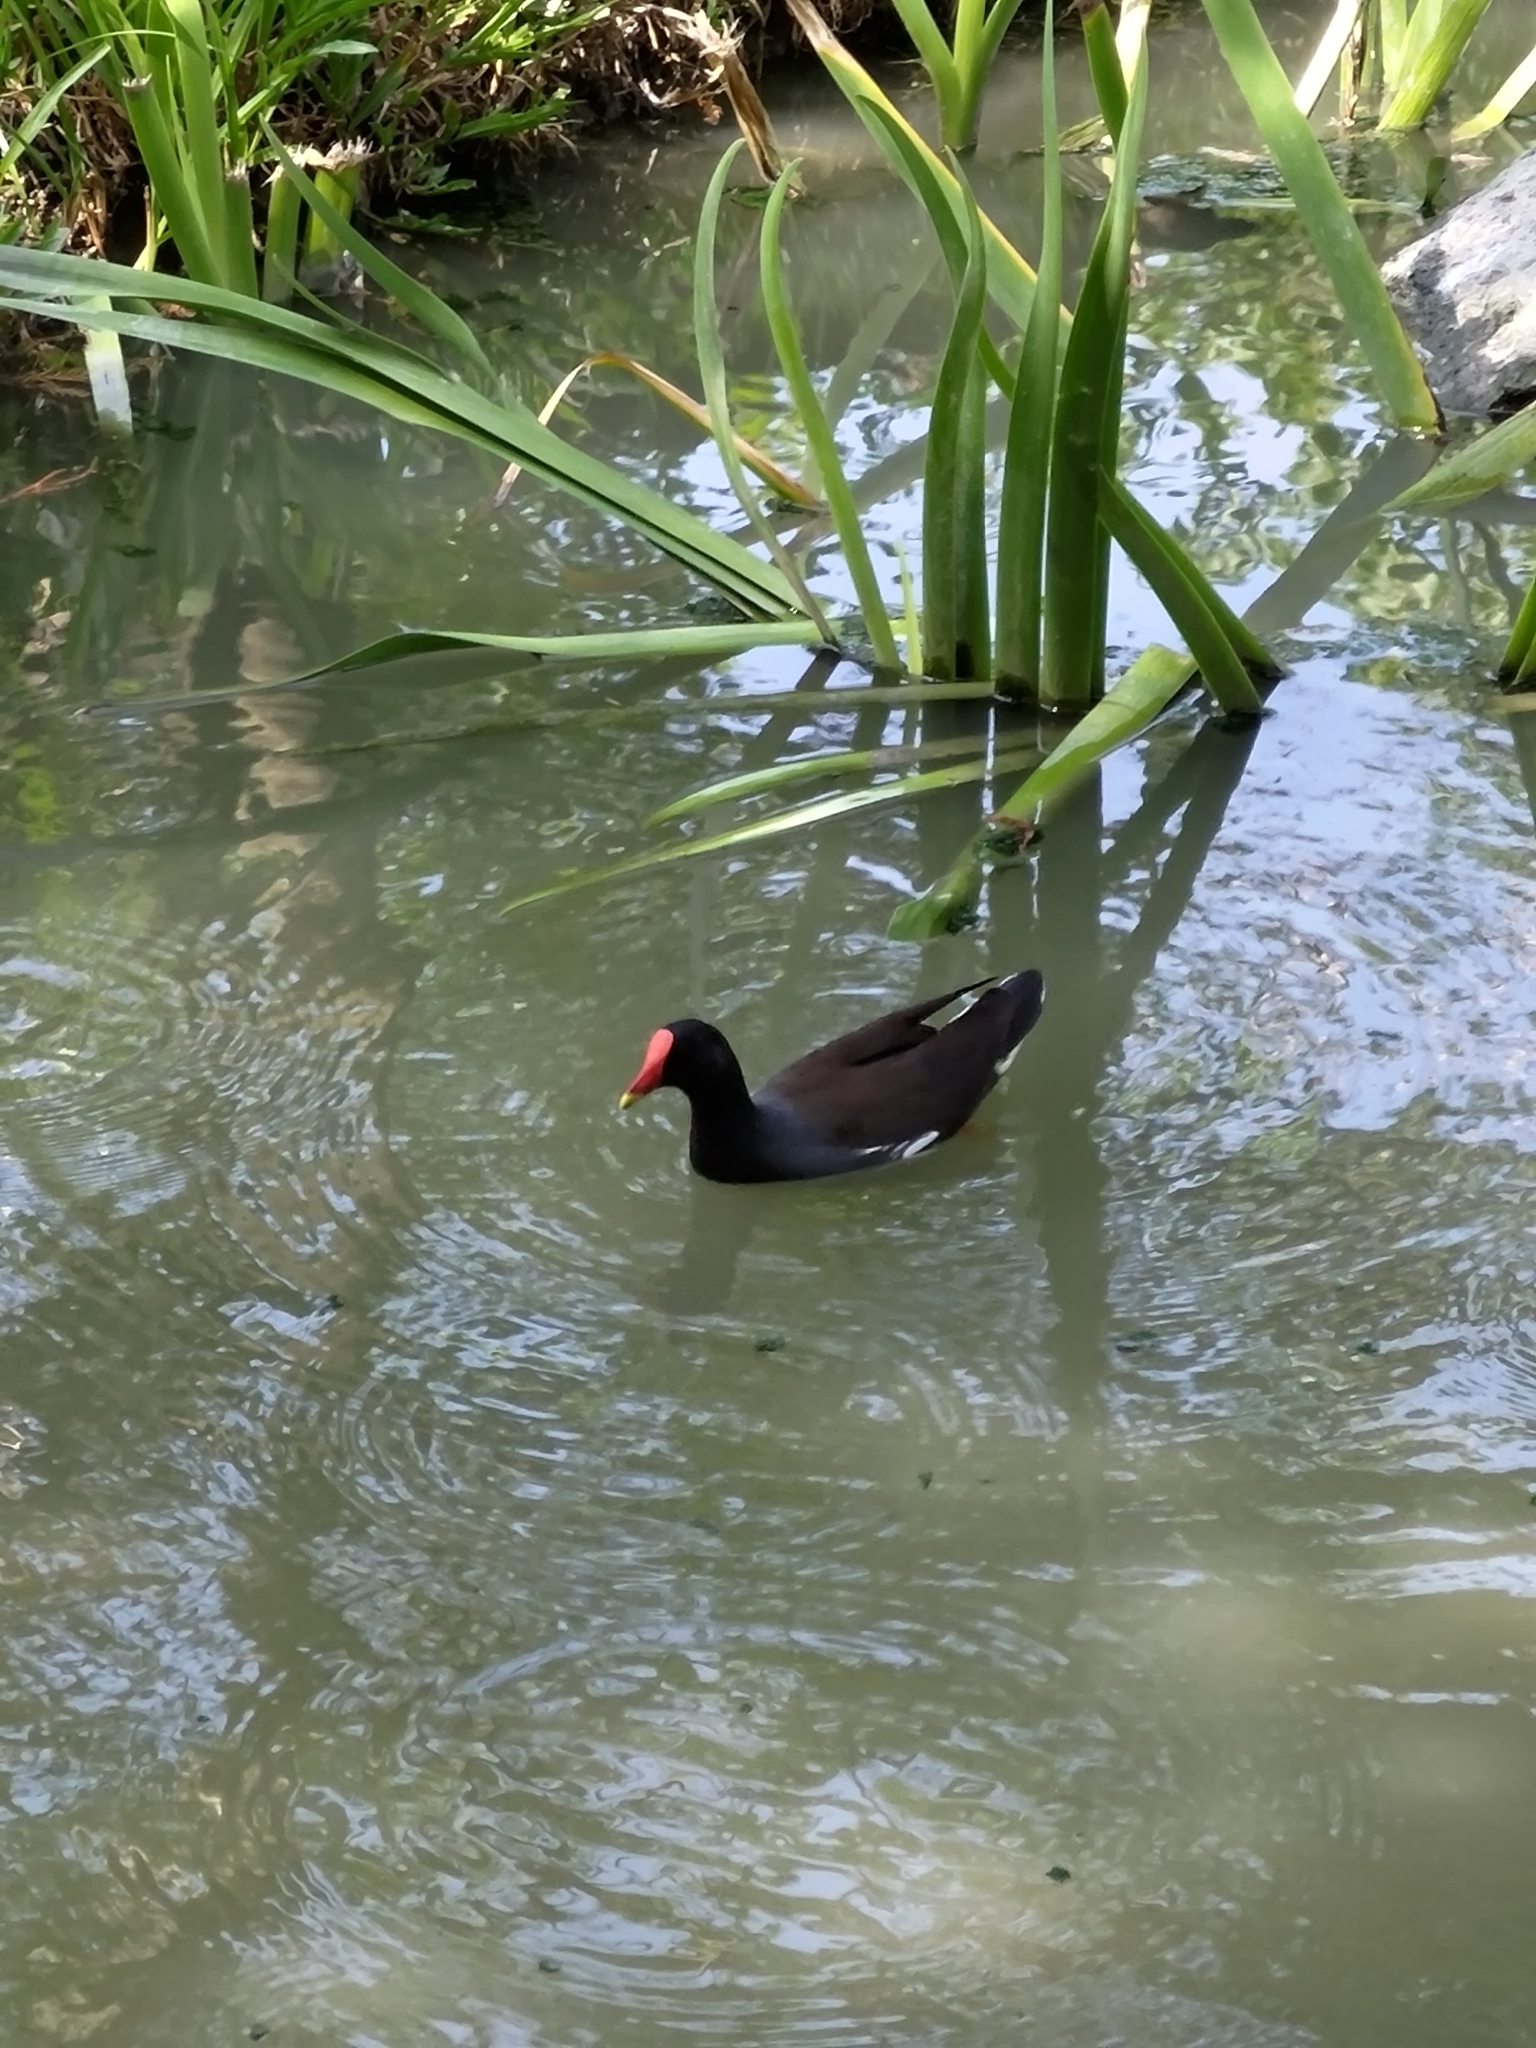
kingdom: Animalia
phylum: Chordata
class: Aves
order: Gruiformes
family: Rallidae
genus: Gallinula
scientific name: Gallinula chloropus
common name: Common moorhen
